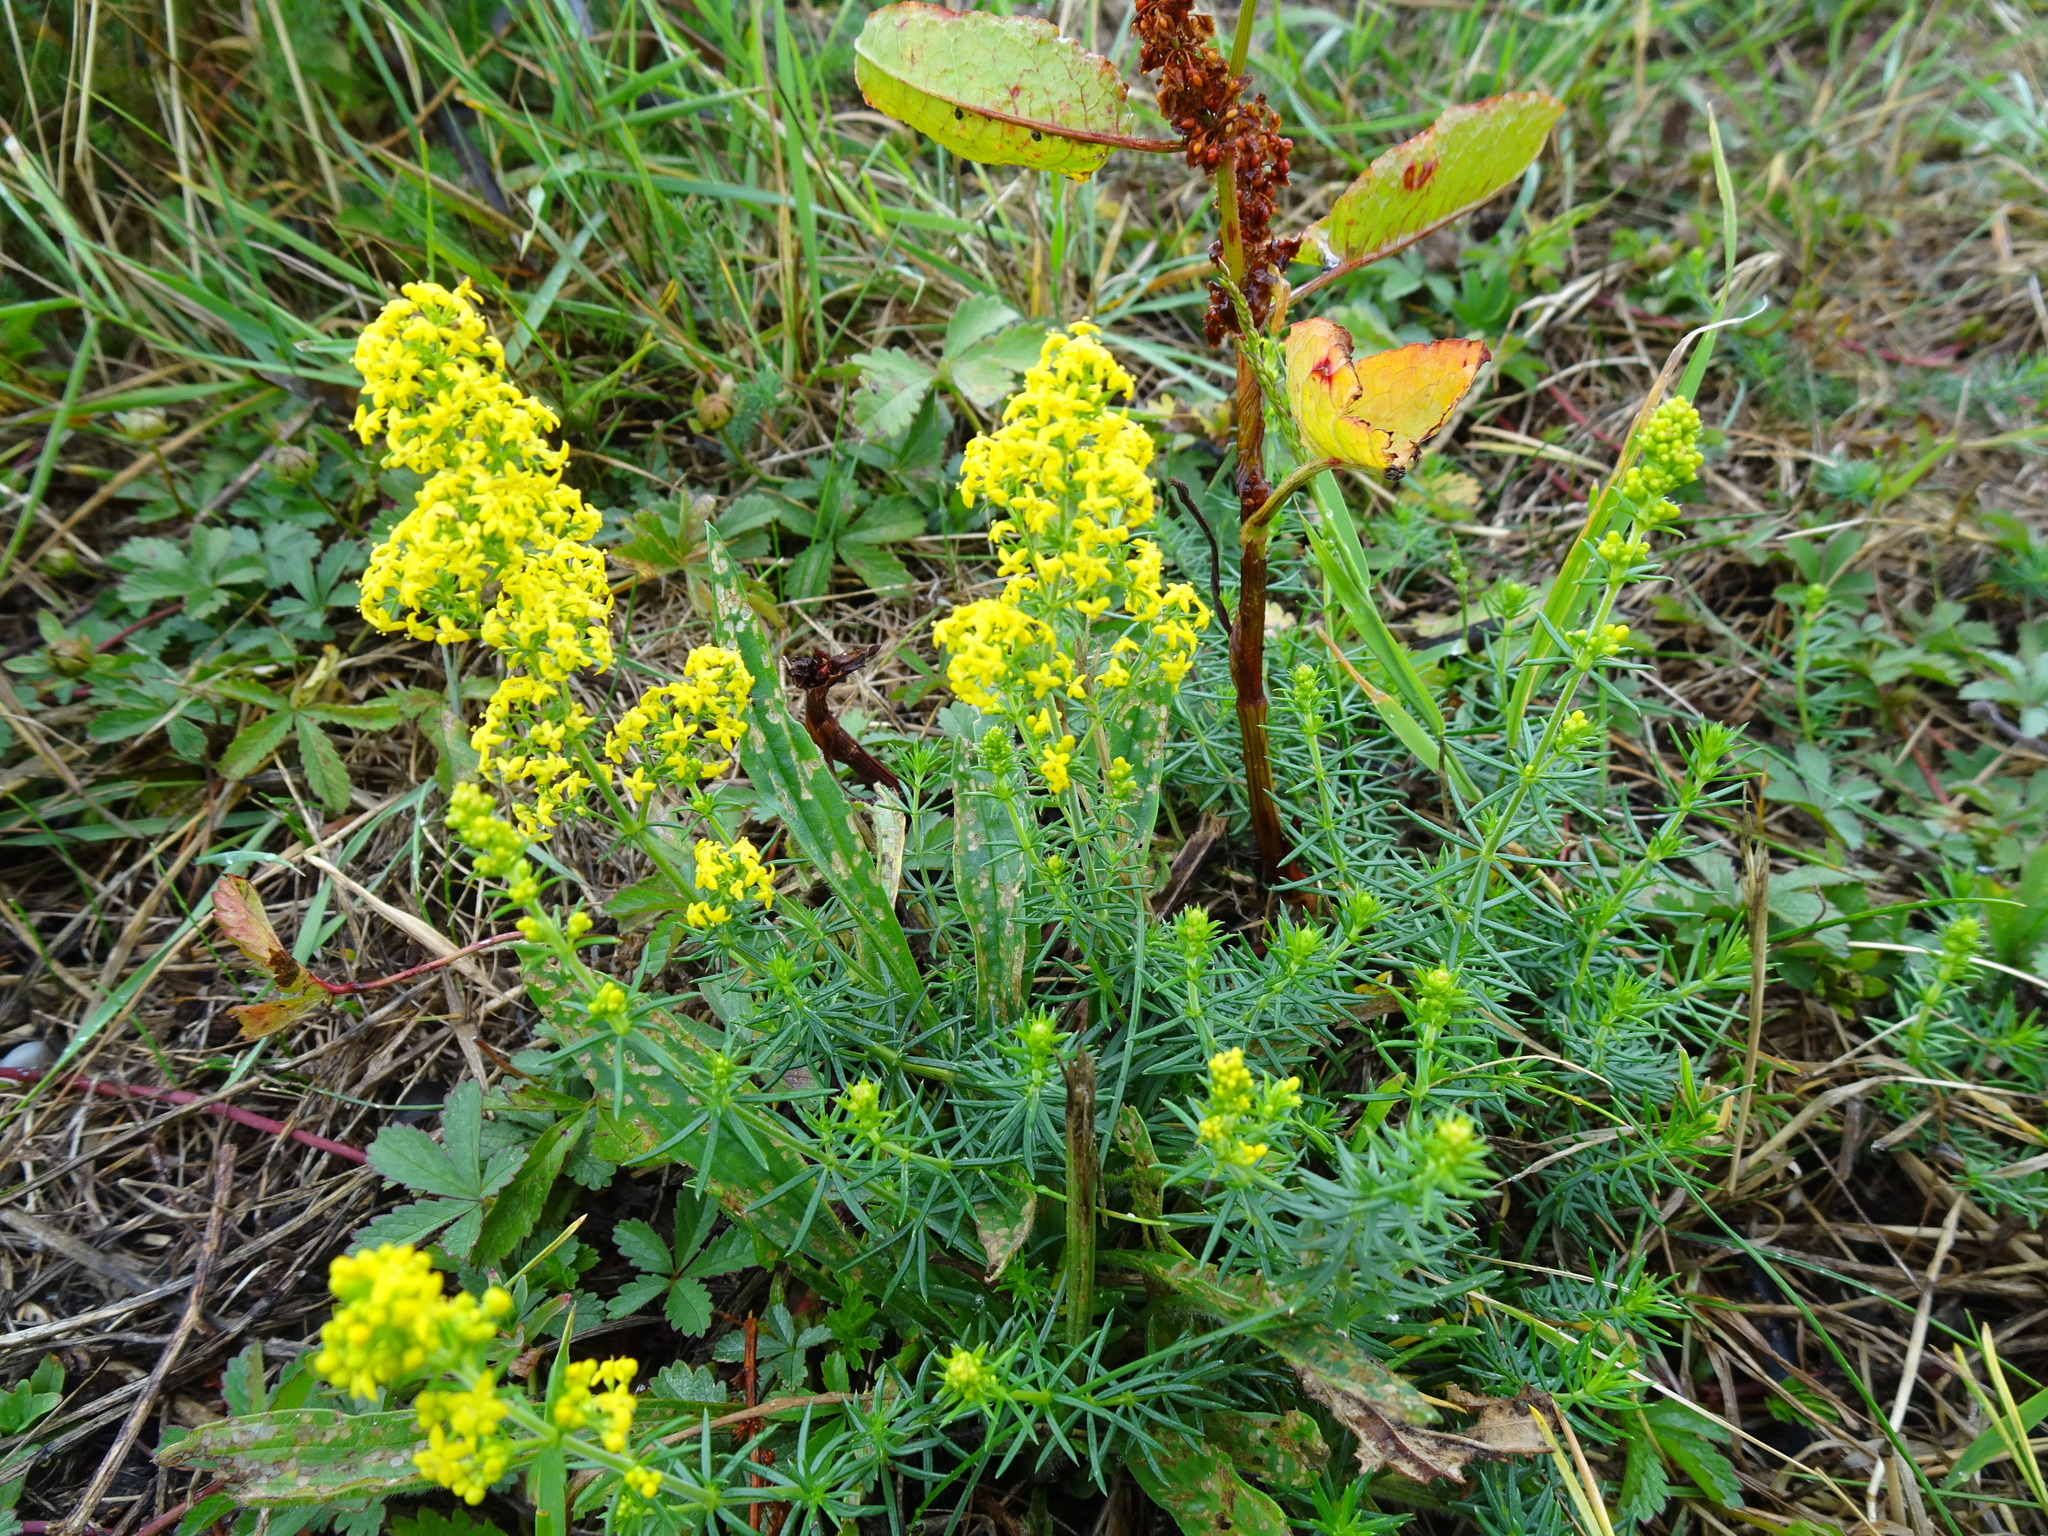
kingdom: Plantae
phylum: Tracheophyta
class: Magnoliopsida
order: Gentianales
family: Rubiaceae
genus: Galium
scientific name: Galium verum
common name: Lady's bedstraw
